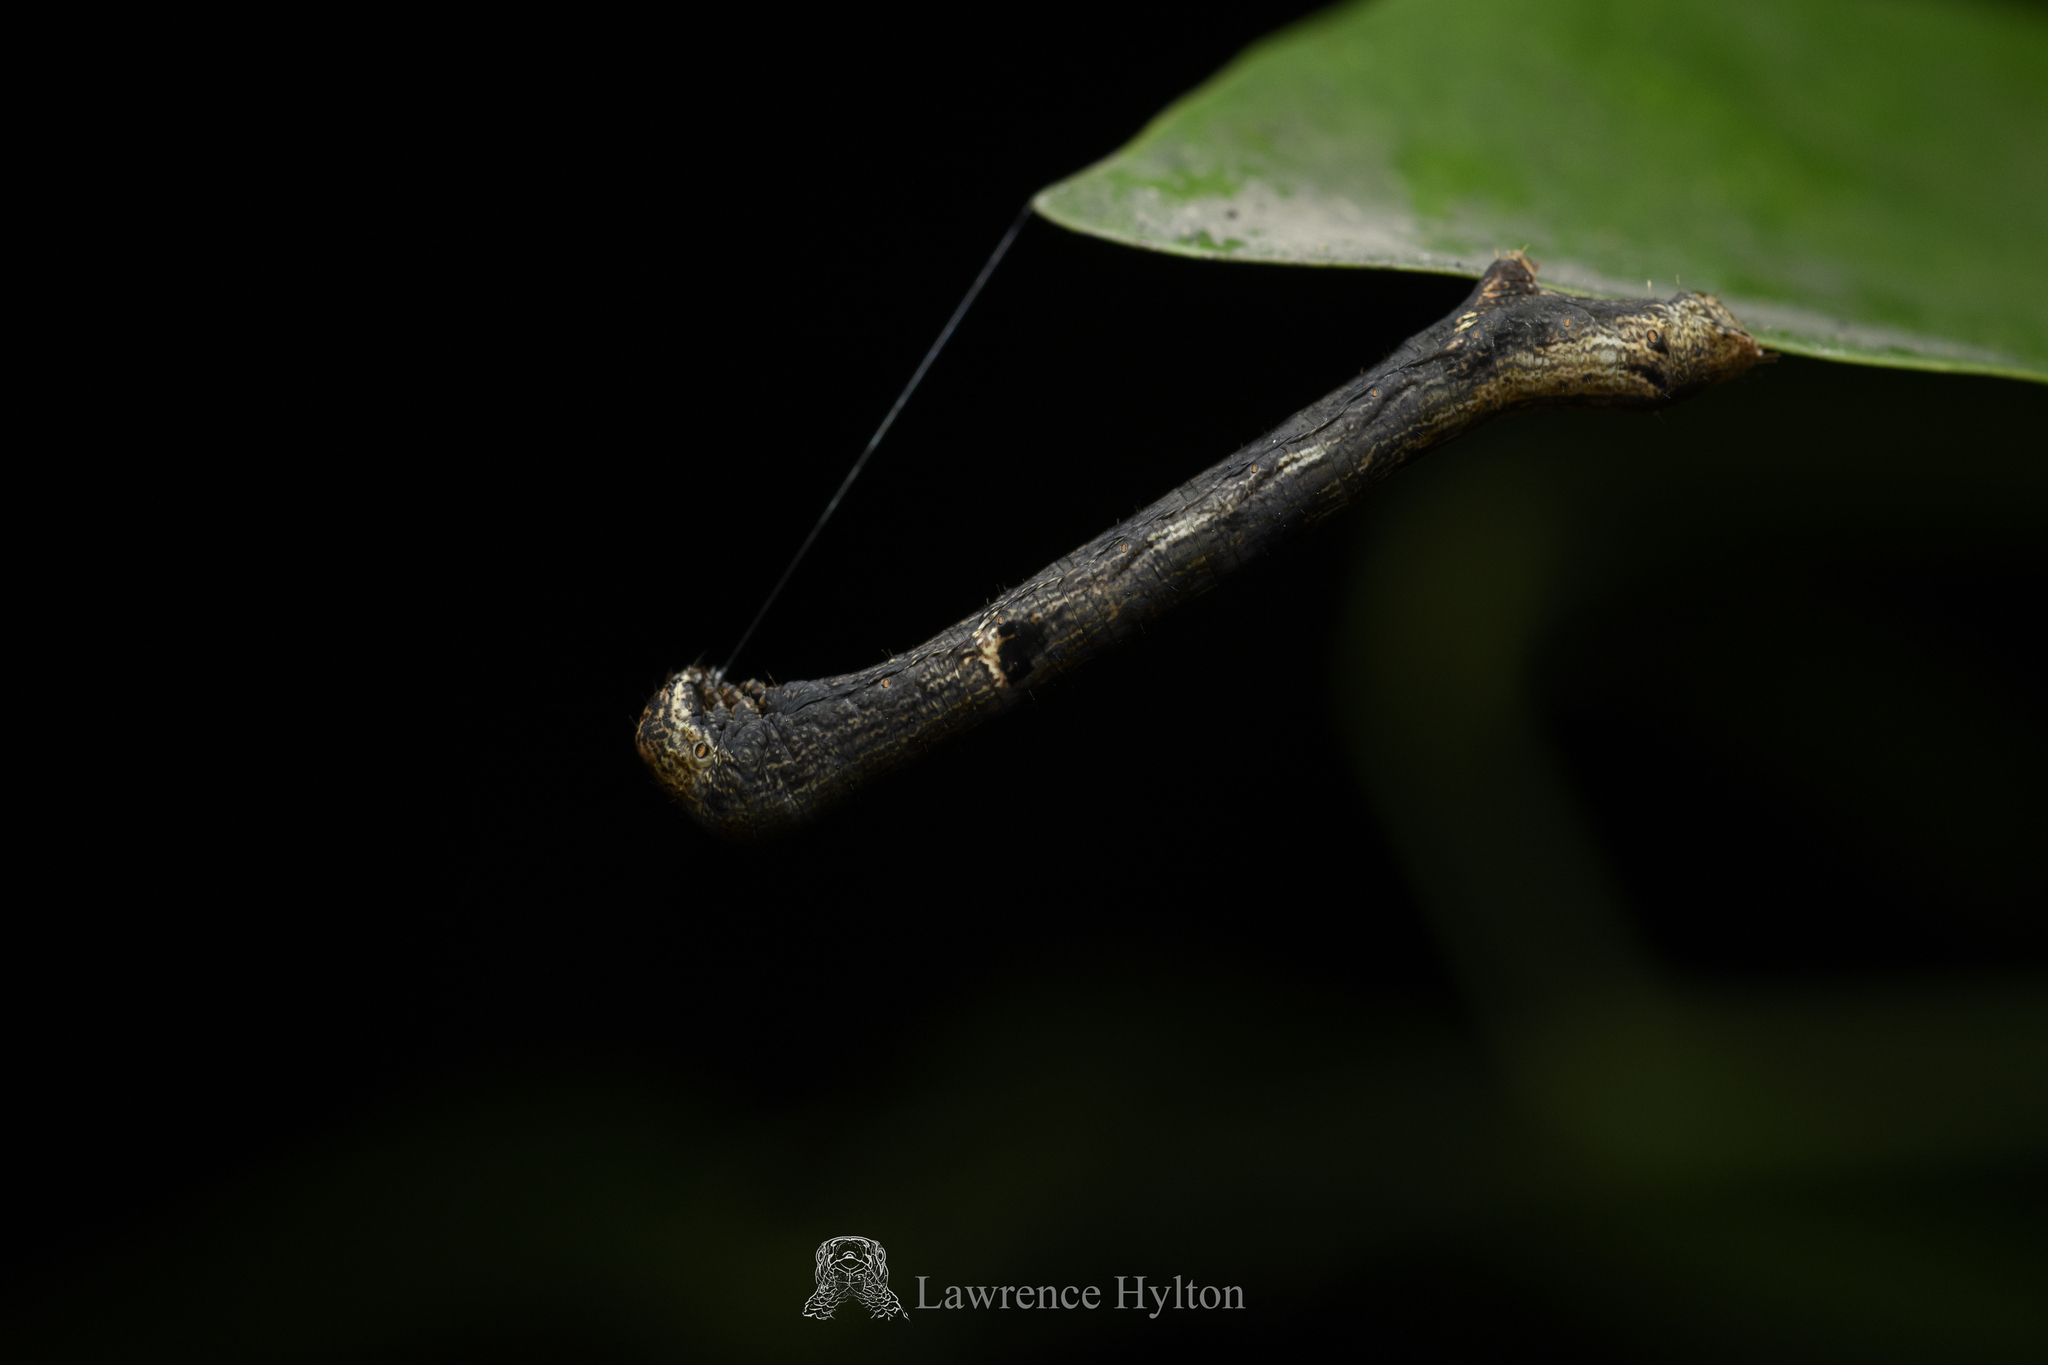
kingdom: Animalia
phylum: Arthropoda
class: Insecta
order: Lepidoptera
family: Geometridae
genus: Ectropis
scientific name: Ectropis bhurmitra
